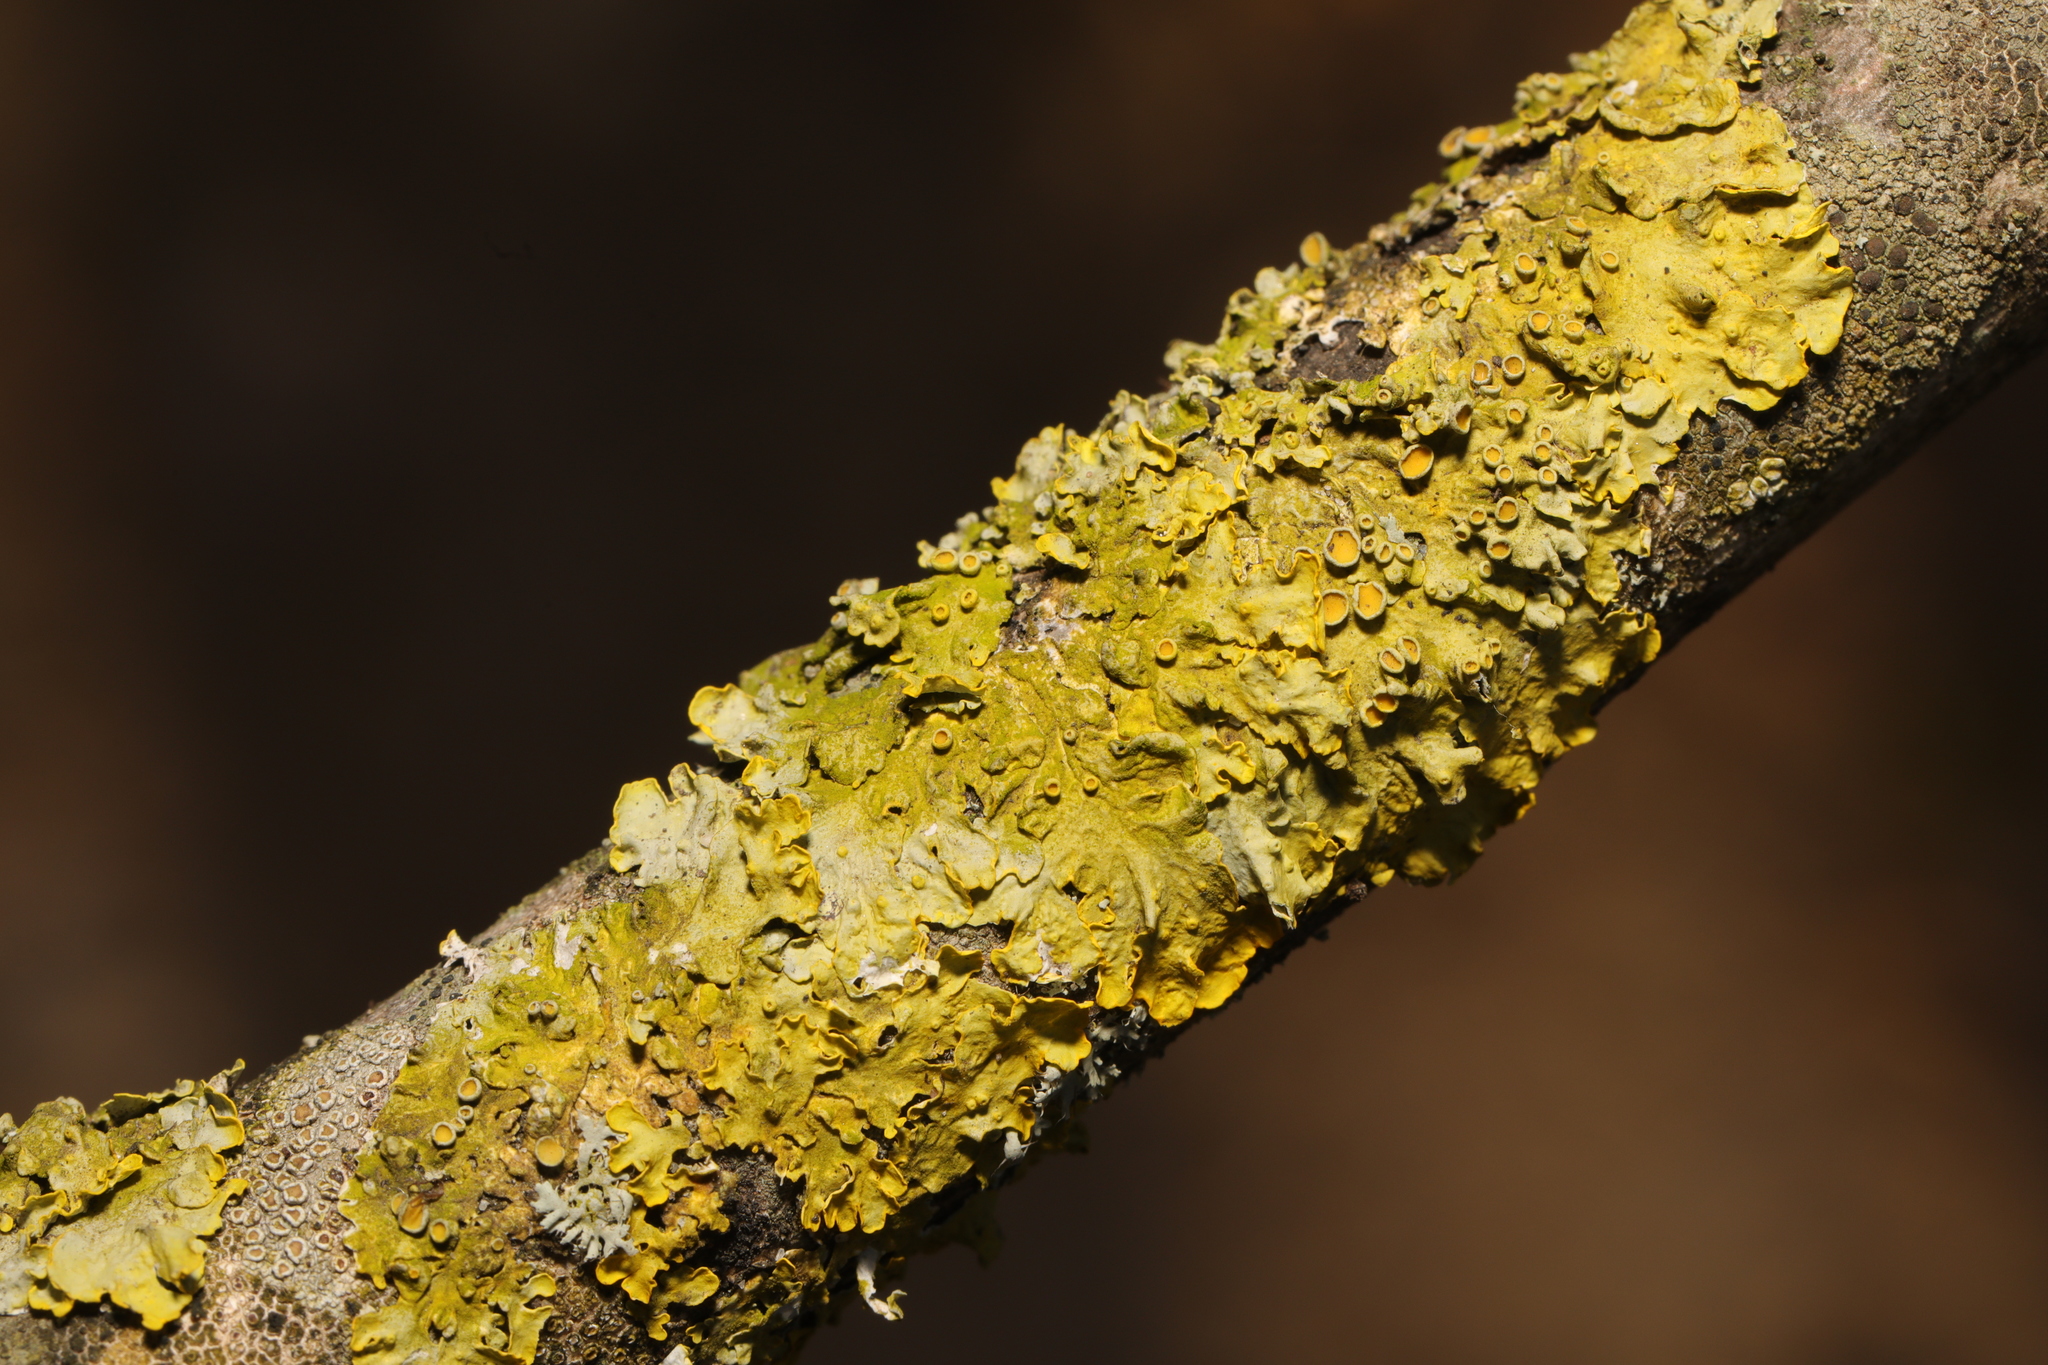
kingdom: Fungi
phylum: Ascomycota
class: Lecanoromycetes
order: Teloschistales
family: Teloschistaceae
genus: Xanthoria
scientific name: Xanthoria parietina
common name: Common orange lichen
